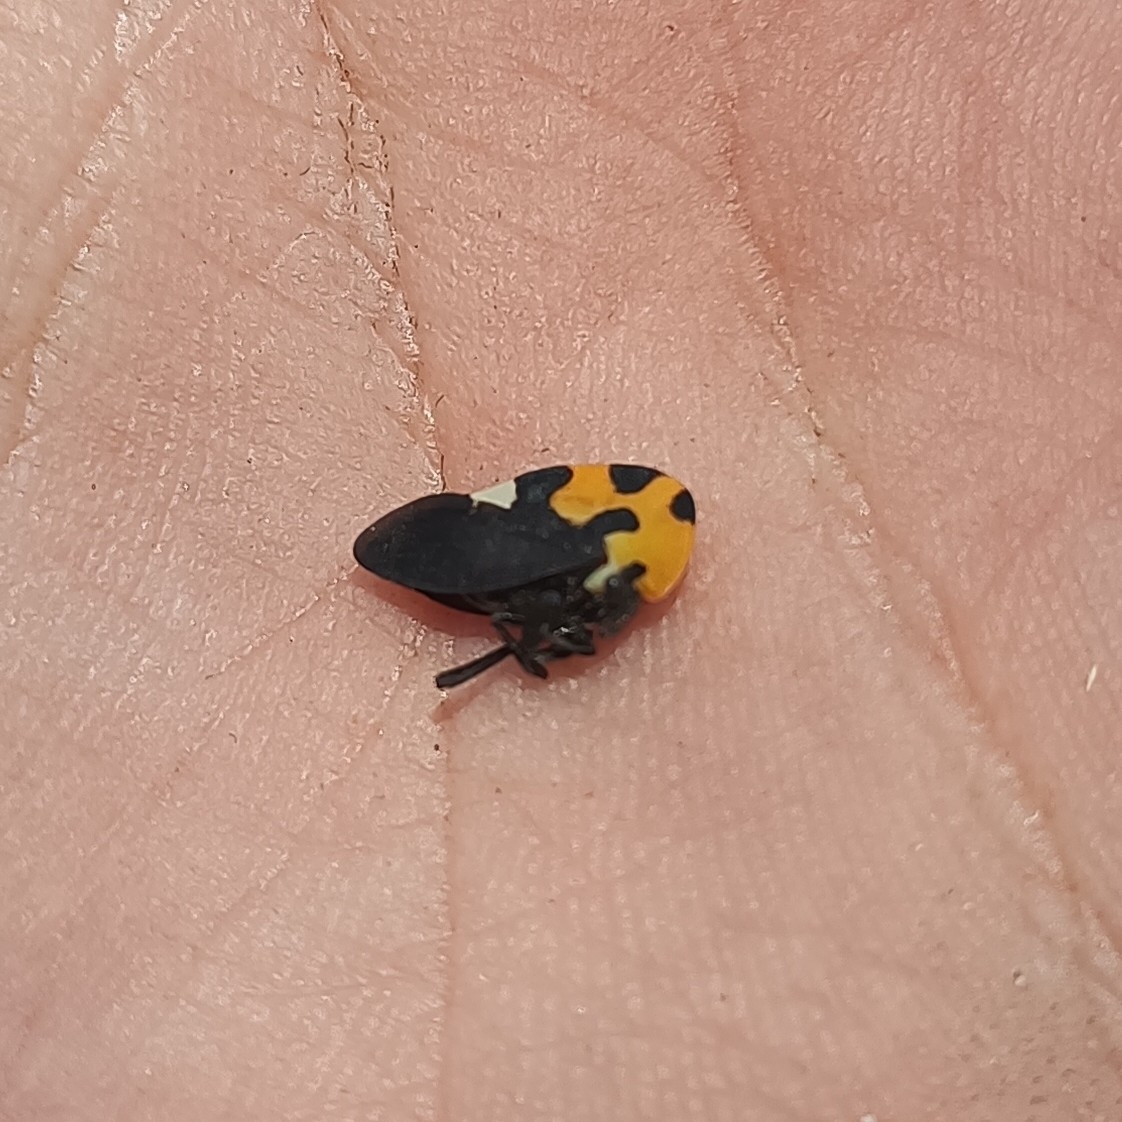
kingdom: Animalia
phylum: Arthropoda
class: Insecta
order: Hemiptera
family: Membracidae
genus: Membracis
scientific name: Membracis mexicana
